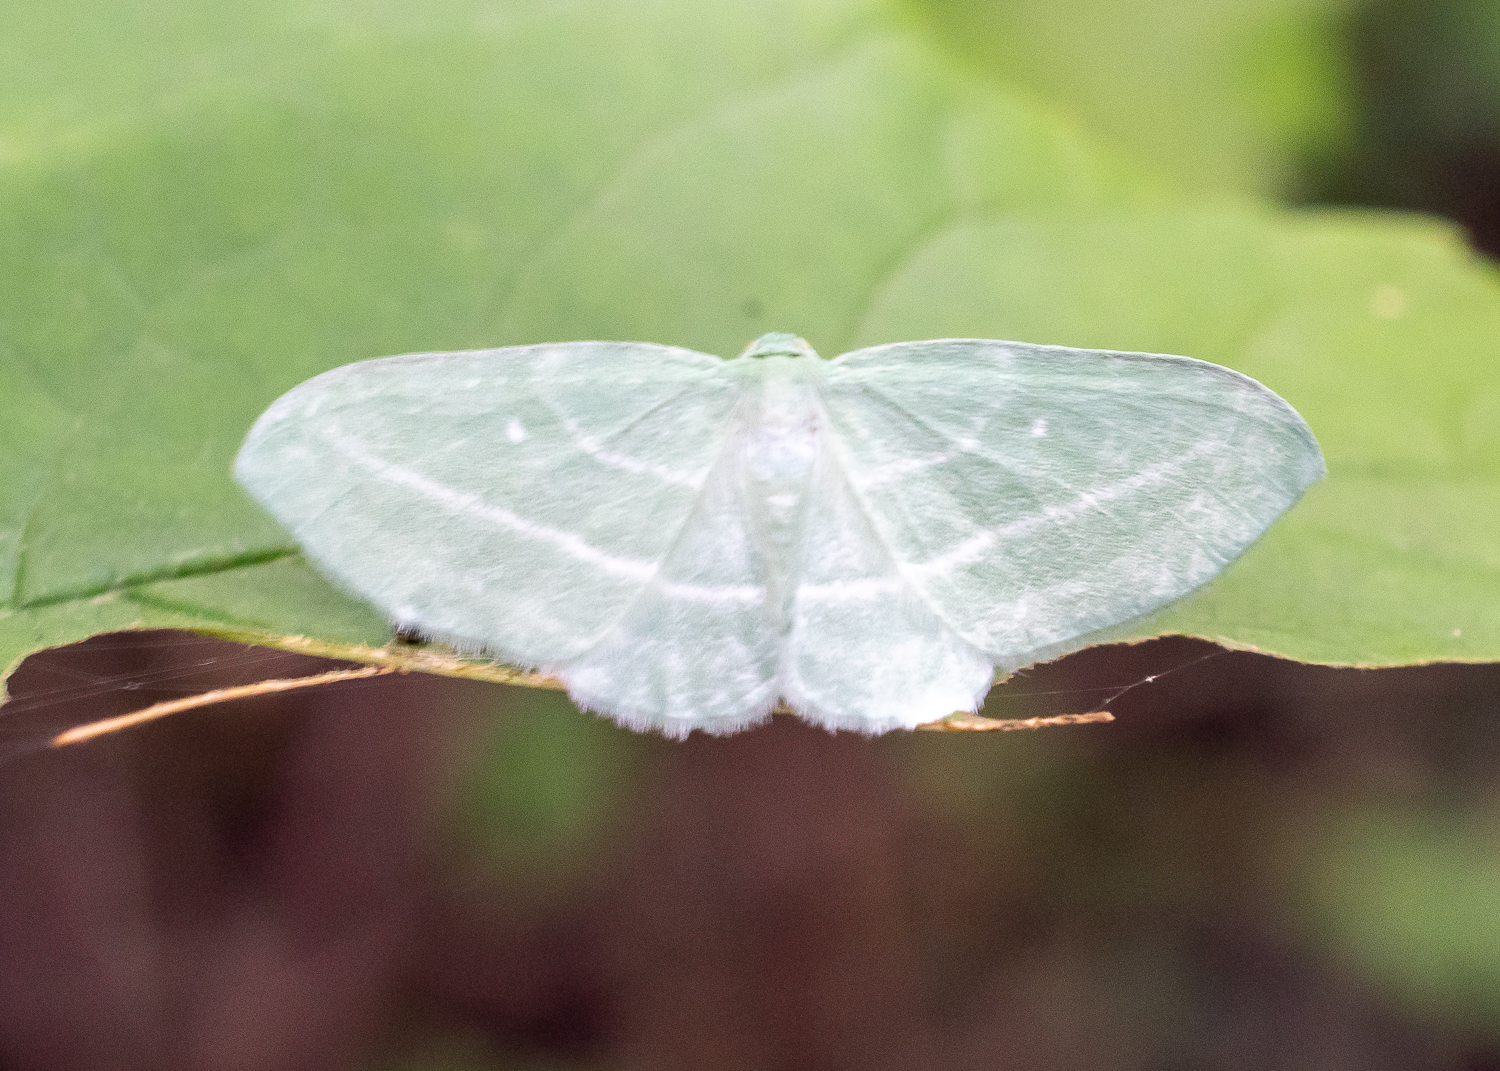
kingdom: Animalia
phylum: Arthropoda
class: Insecta
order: Lepidoptera
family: Geometridae
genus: Dyspteris
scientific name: Dyspteris abortivaria
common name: Bad-wing
